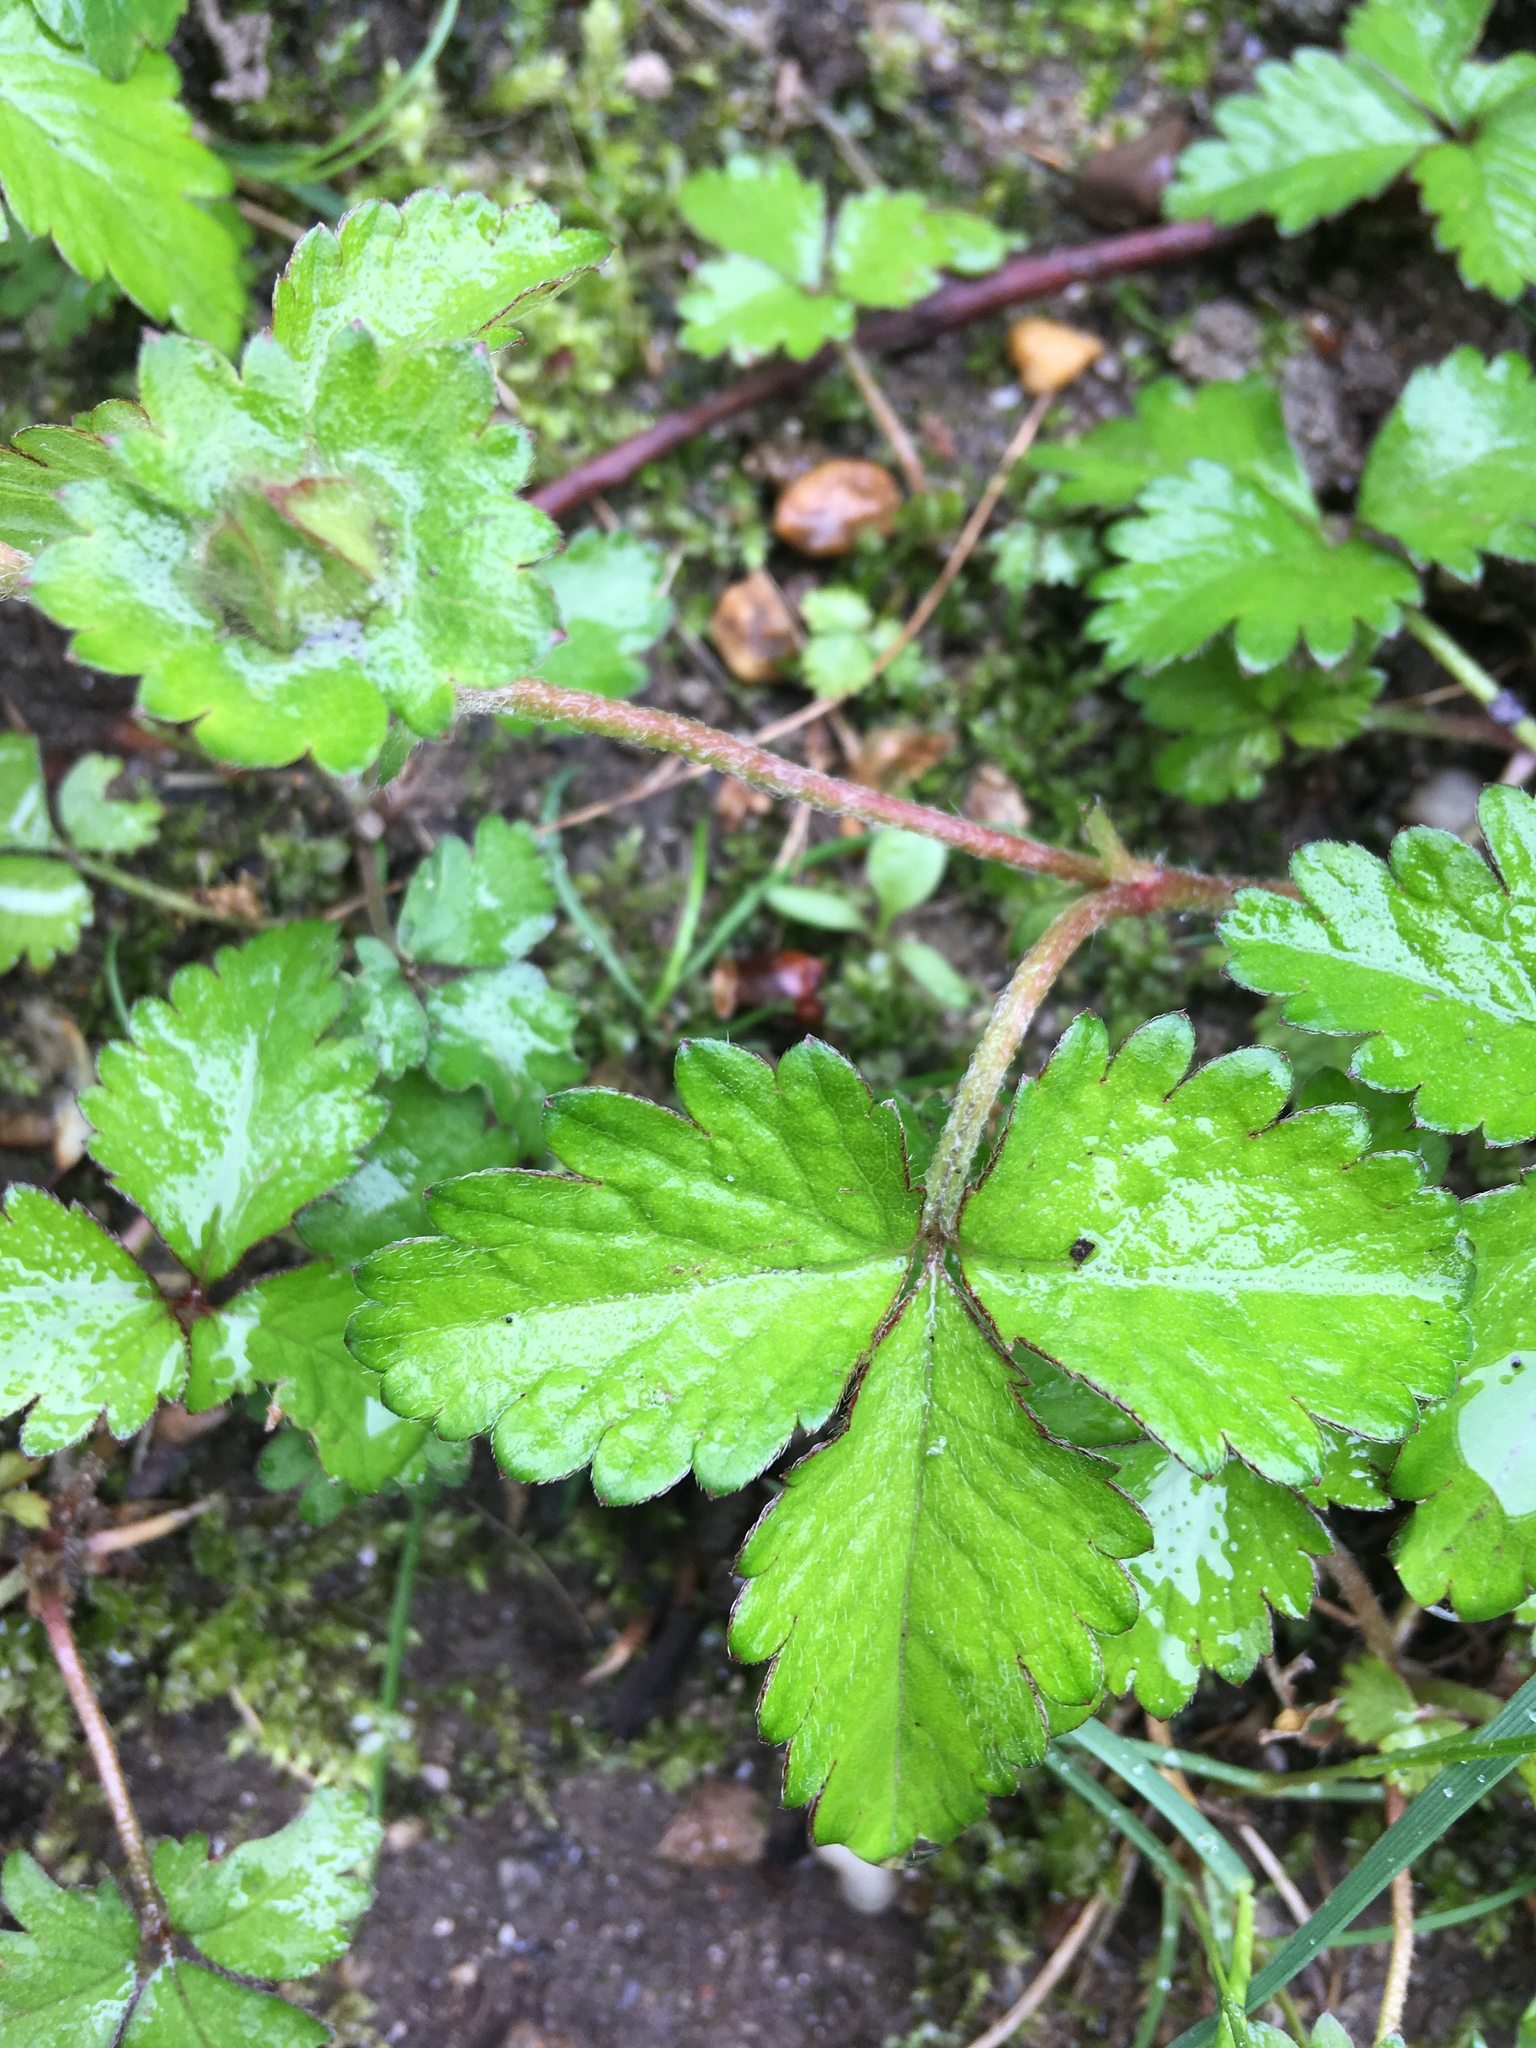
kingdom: Plantae
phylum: Tracheophyta
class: Magnoliopsida
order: Rosales
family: Rosaceae
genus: Potentilla
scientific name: Potentilla indica
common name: Yellow-flowered strawberry
